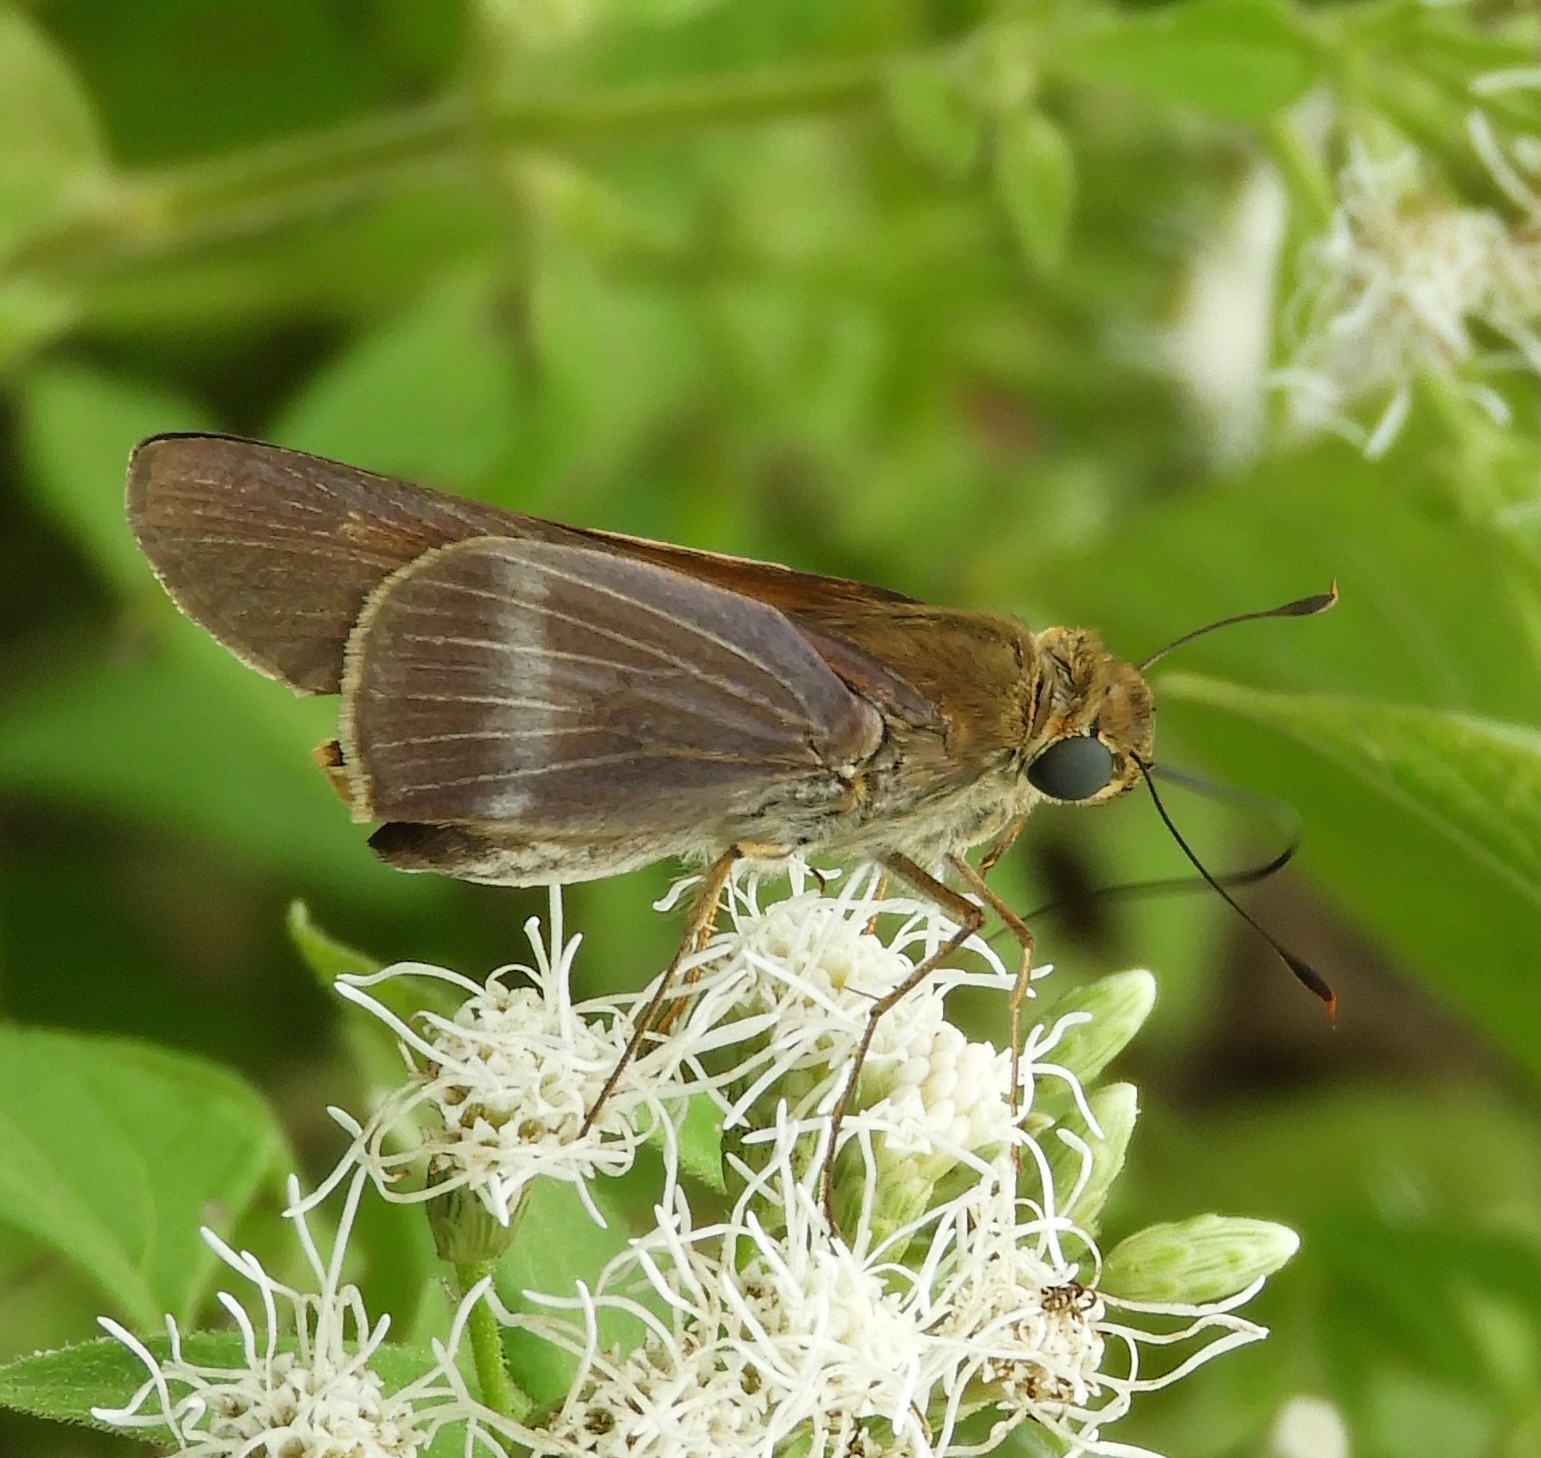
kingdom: Animalia
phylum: Arthropoda
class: Insecta
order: Lepidoptera
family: Hesperiidae
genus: Panoquina
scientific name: Panoquina
